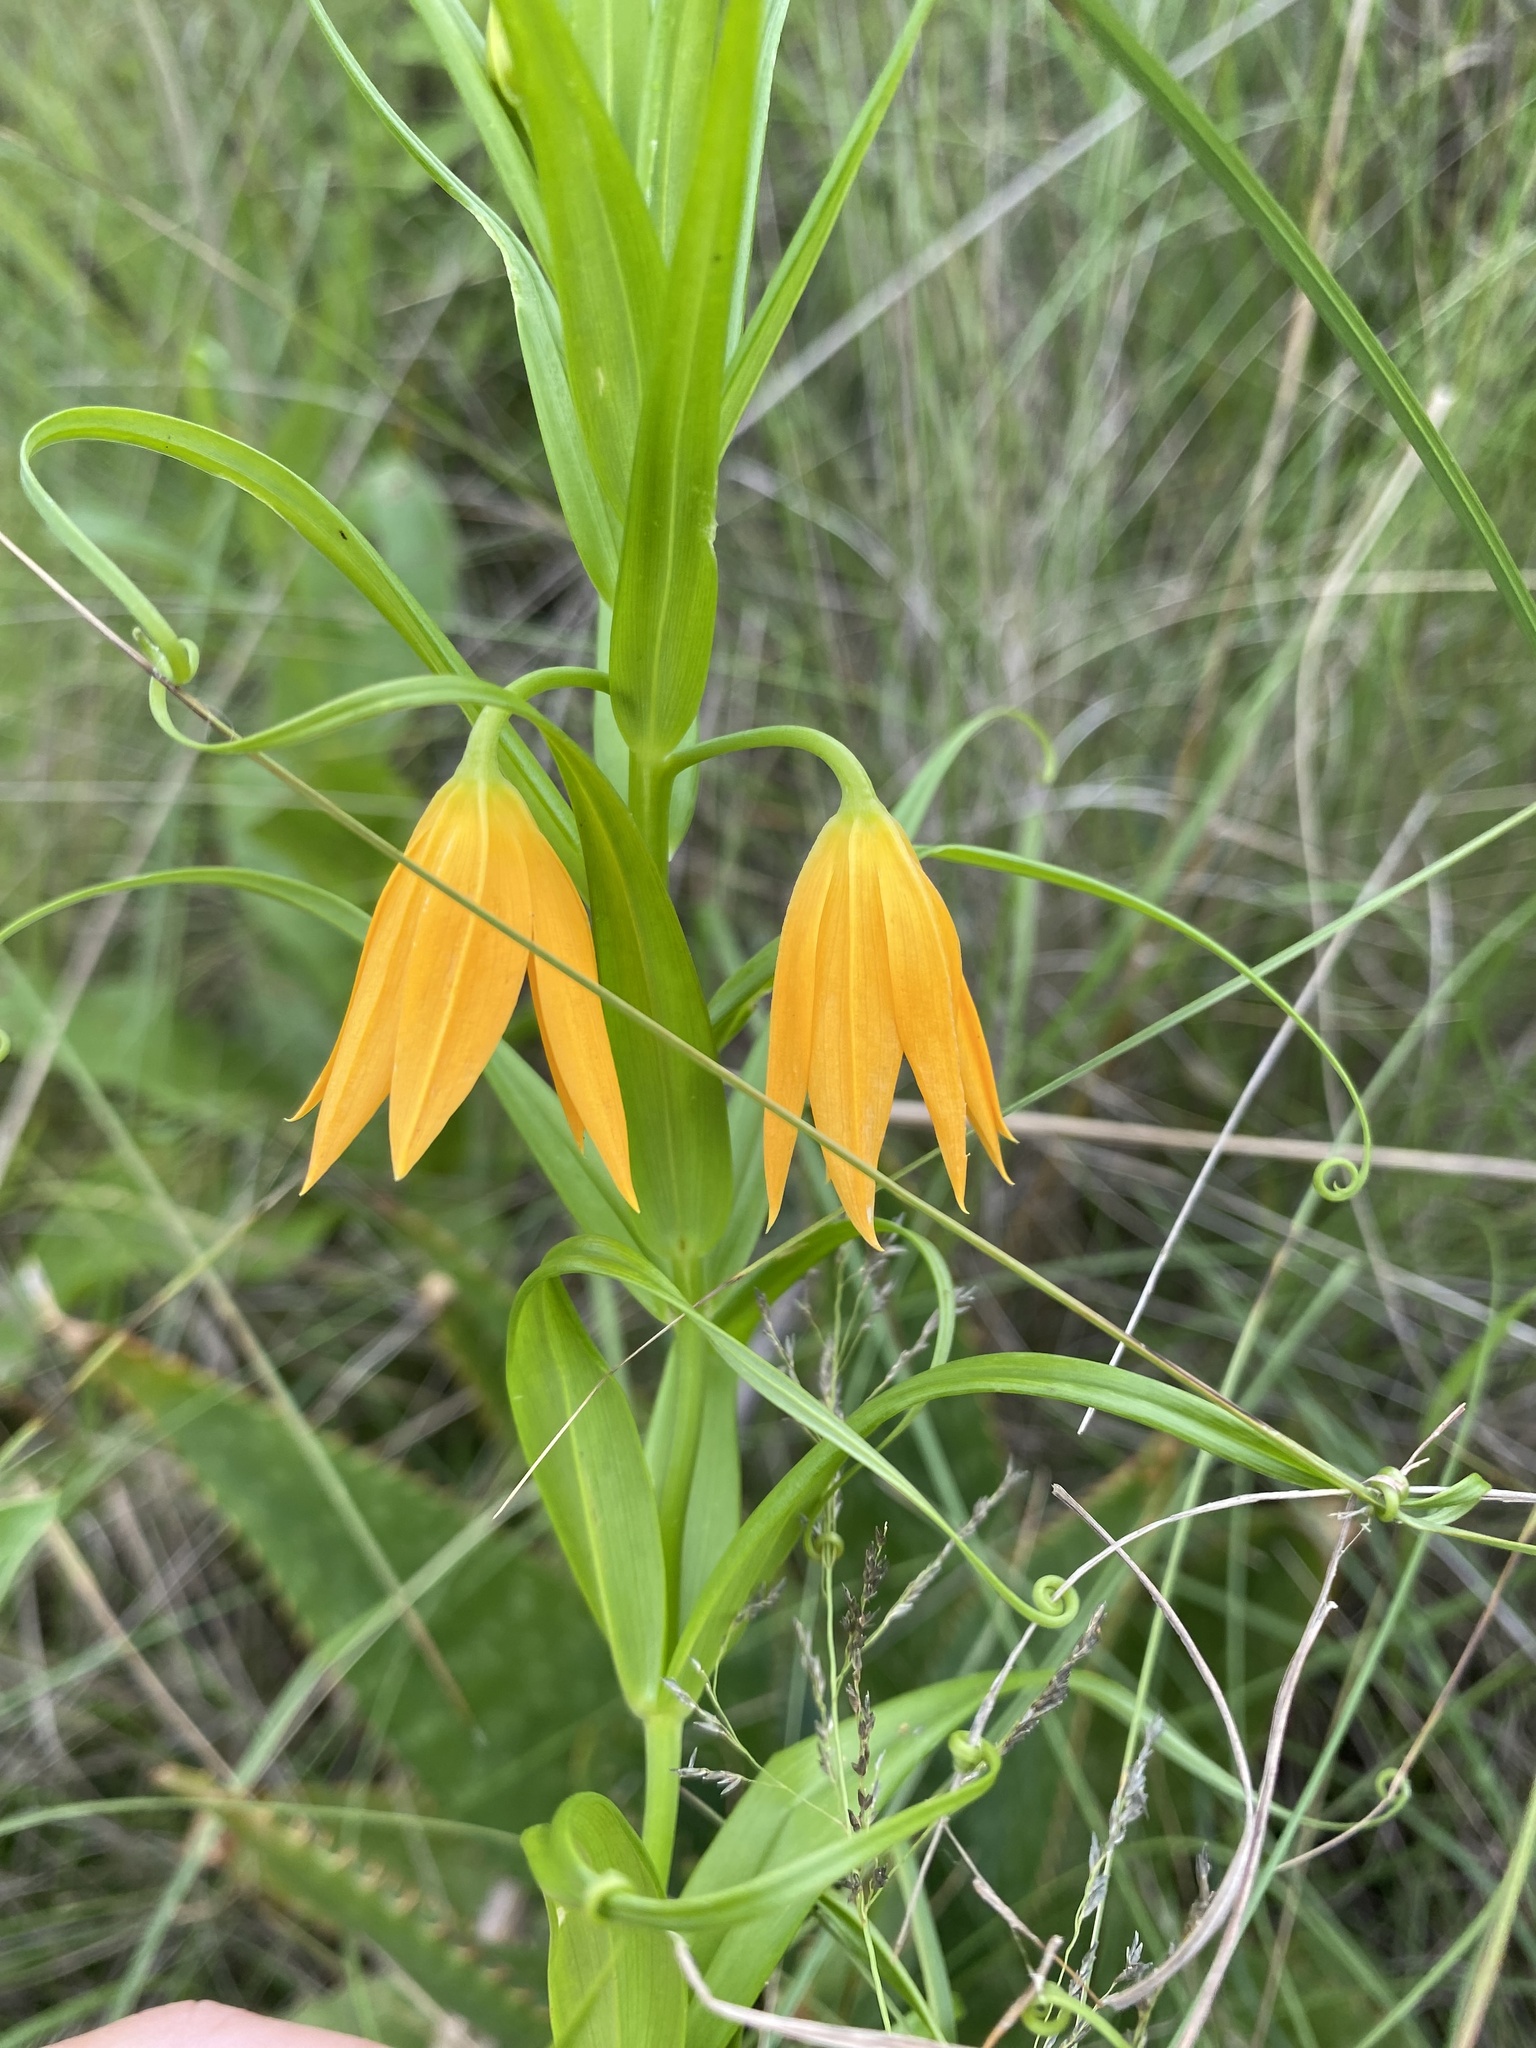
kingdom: Plantae
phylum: Tracheophyta
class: Liliopsida
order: Liliales
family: Colchicaceae
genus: Gloriosa
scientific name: Gloriosa modesta
